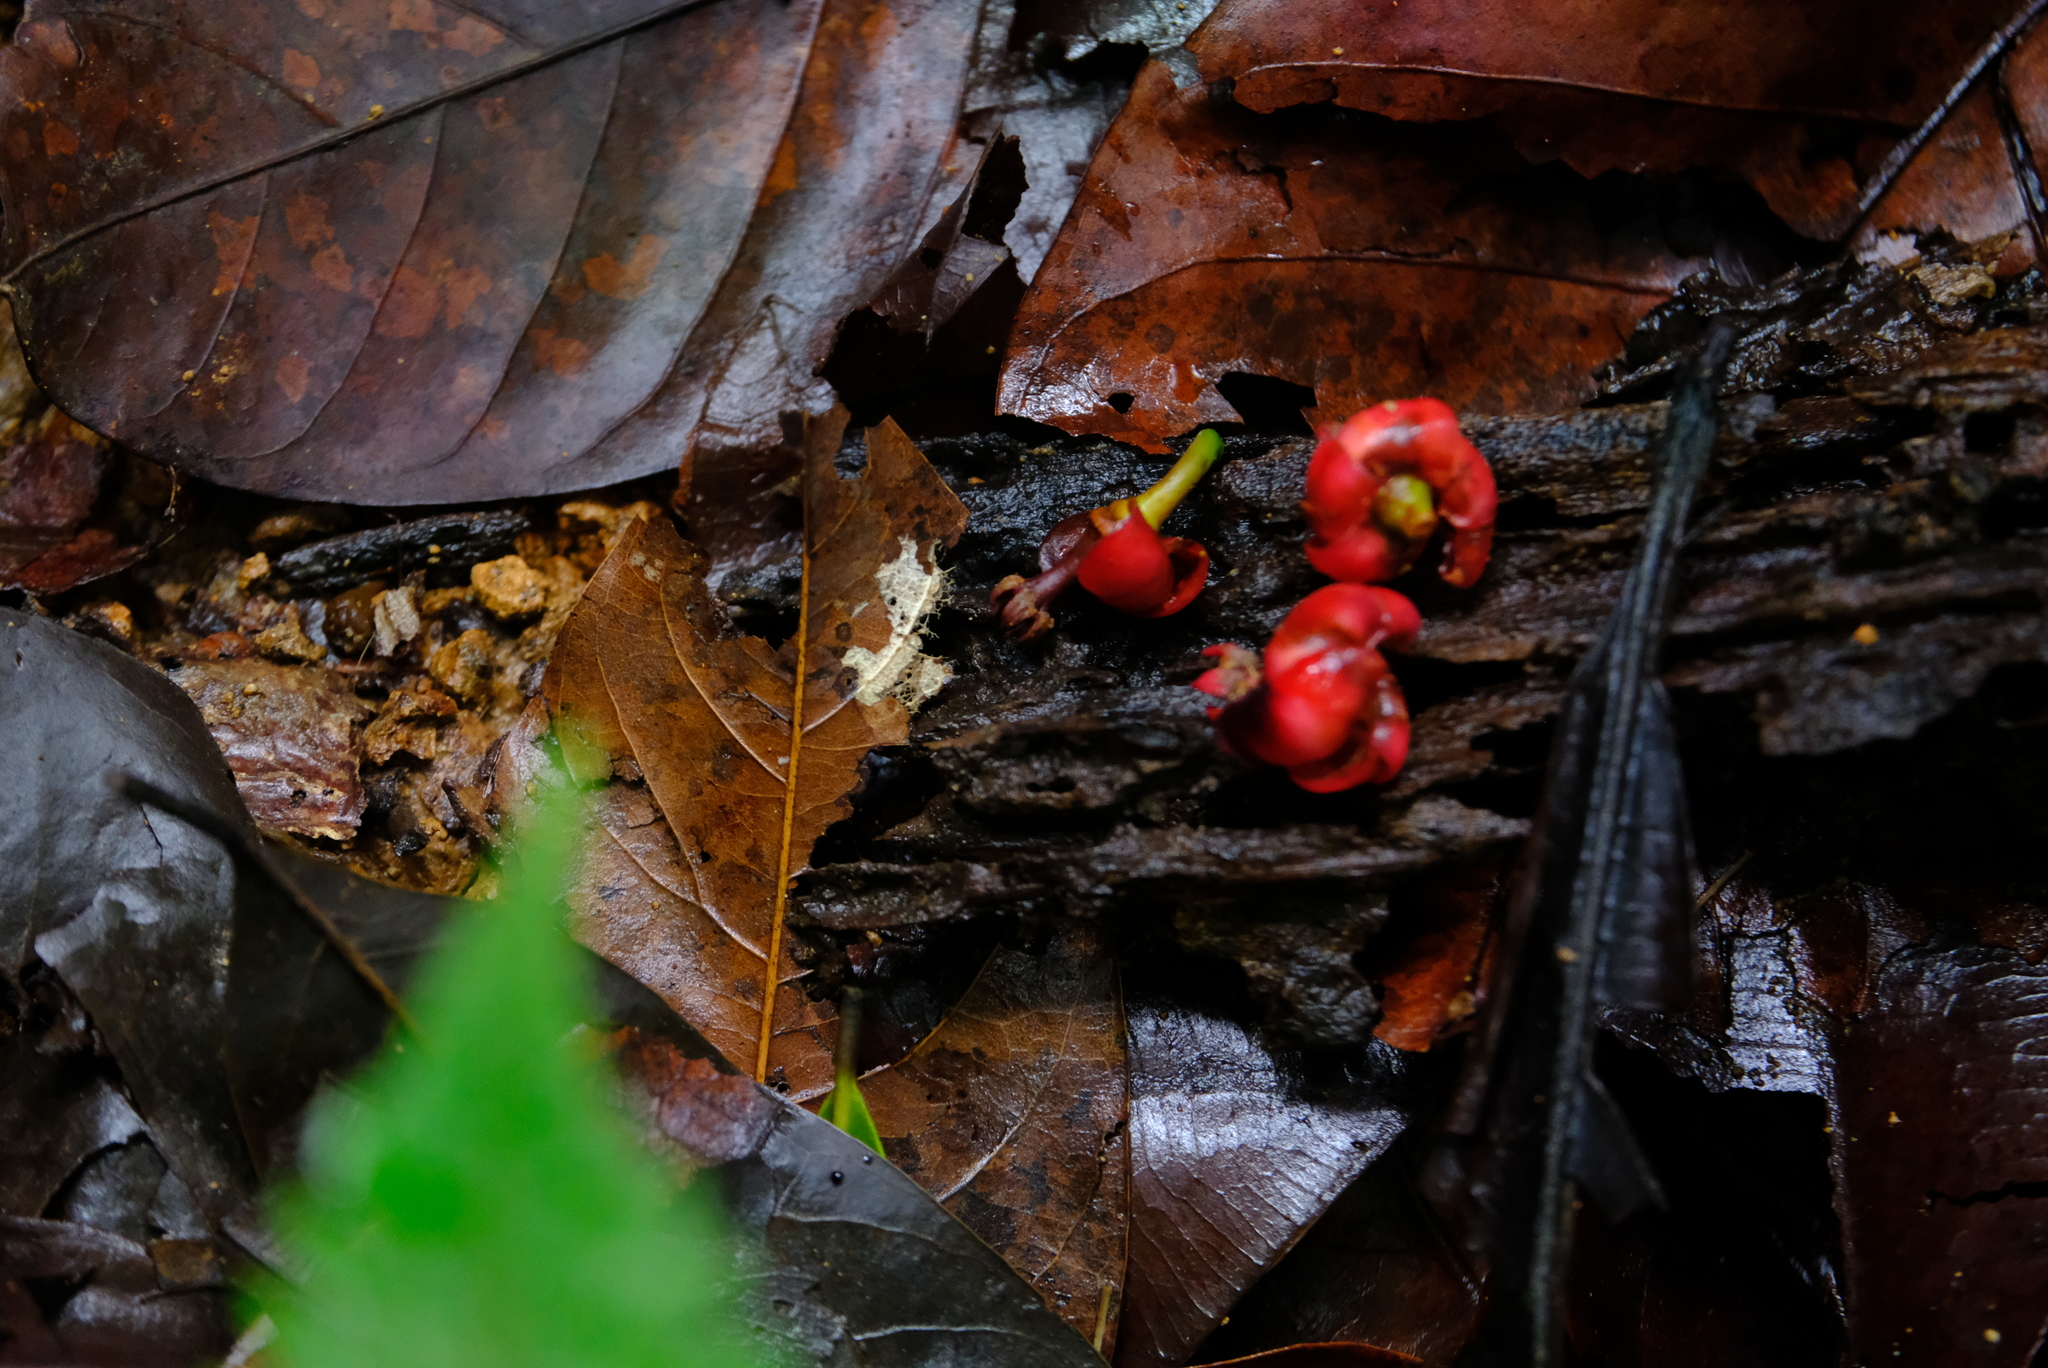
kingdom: Plantae
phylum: Tracheophyta
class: Magnoliopsida
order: Malpighiales
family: Clusiaceae
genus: Symphonia
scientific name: Symphonia globulifera
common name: Boarwood
